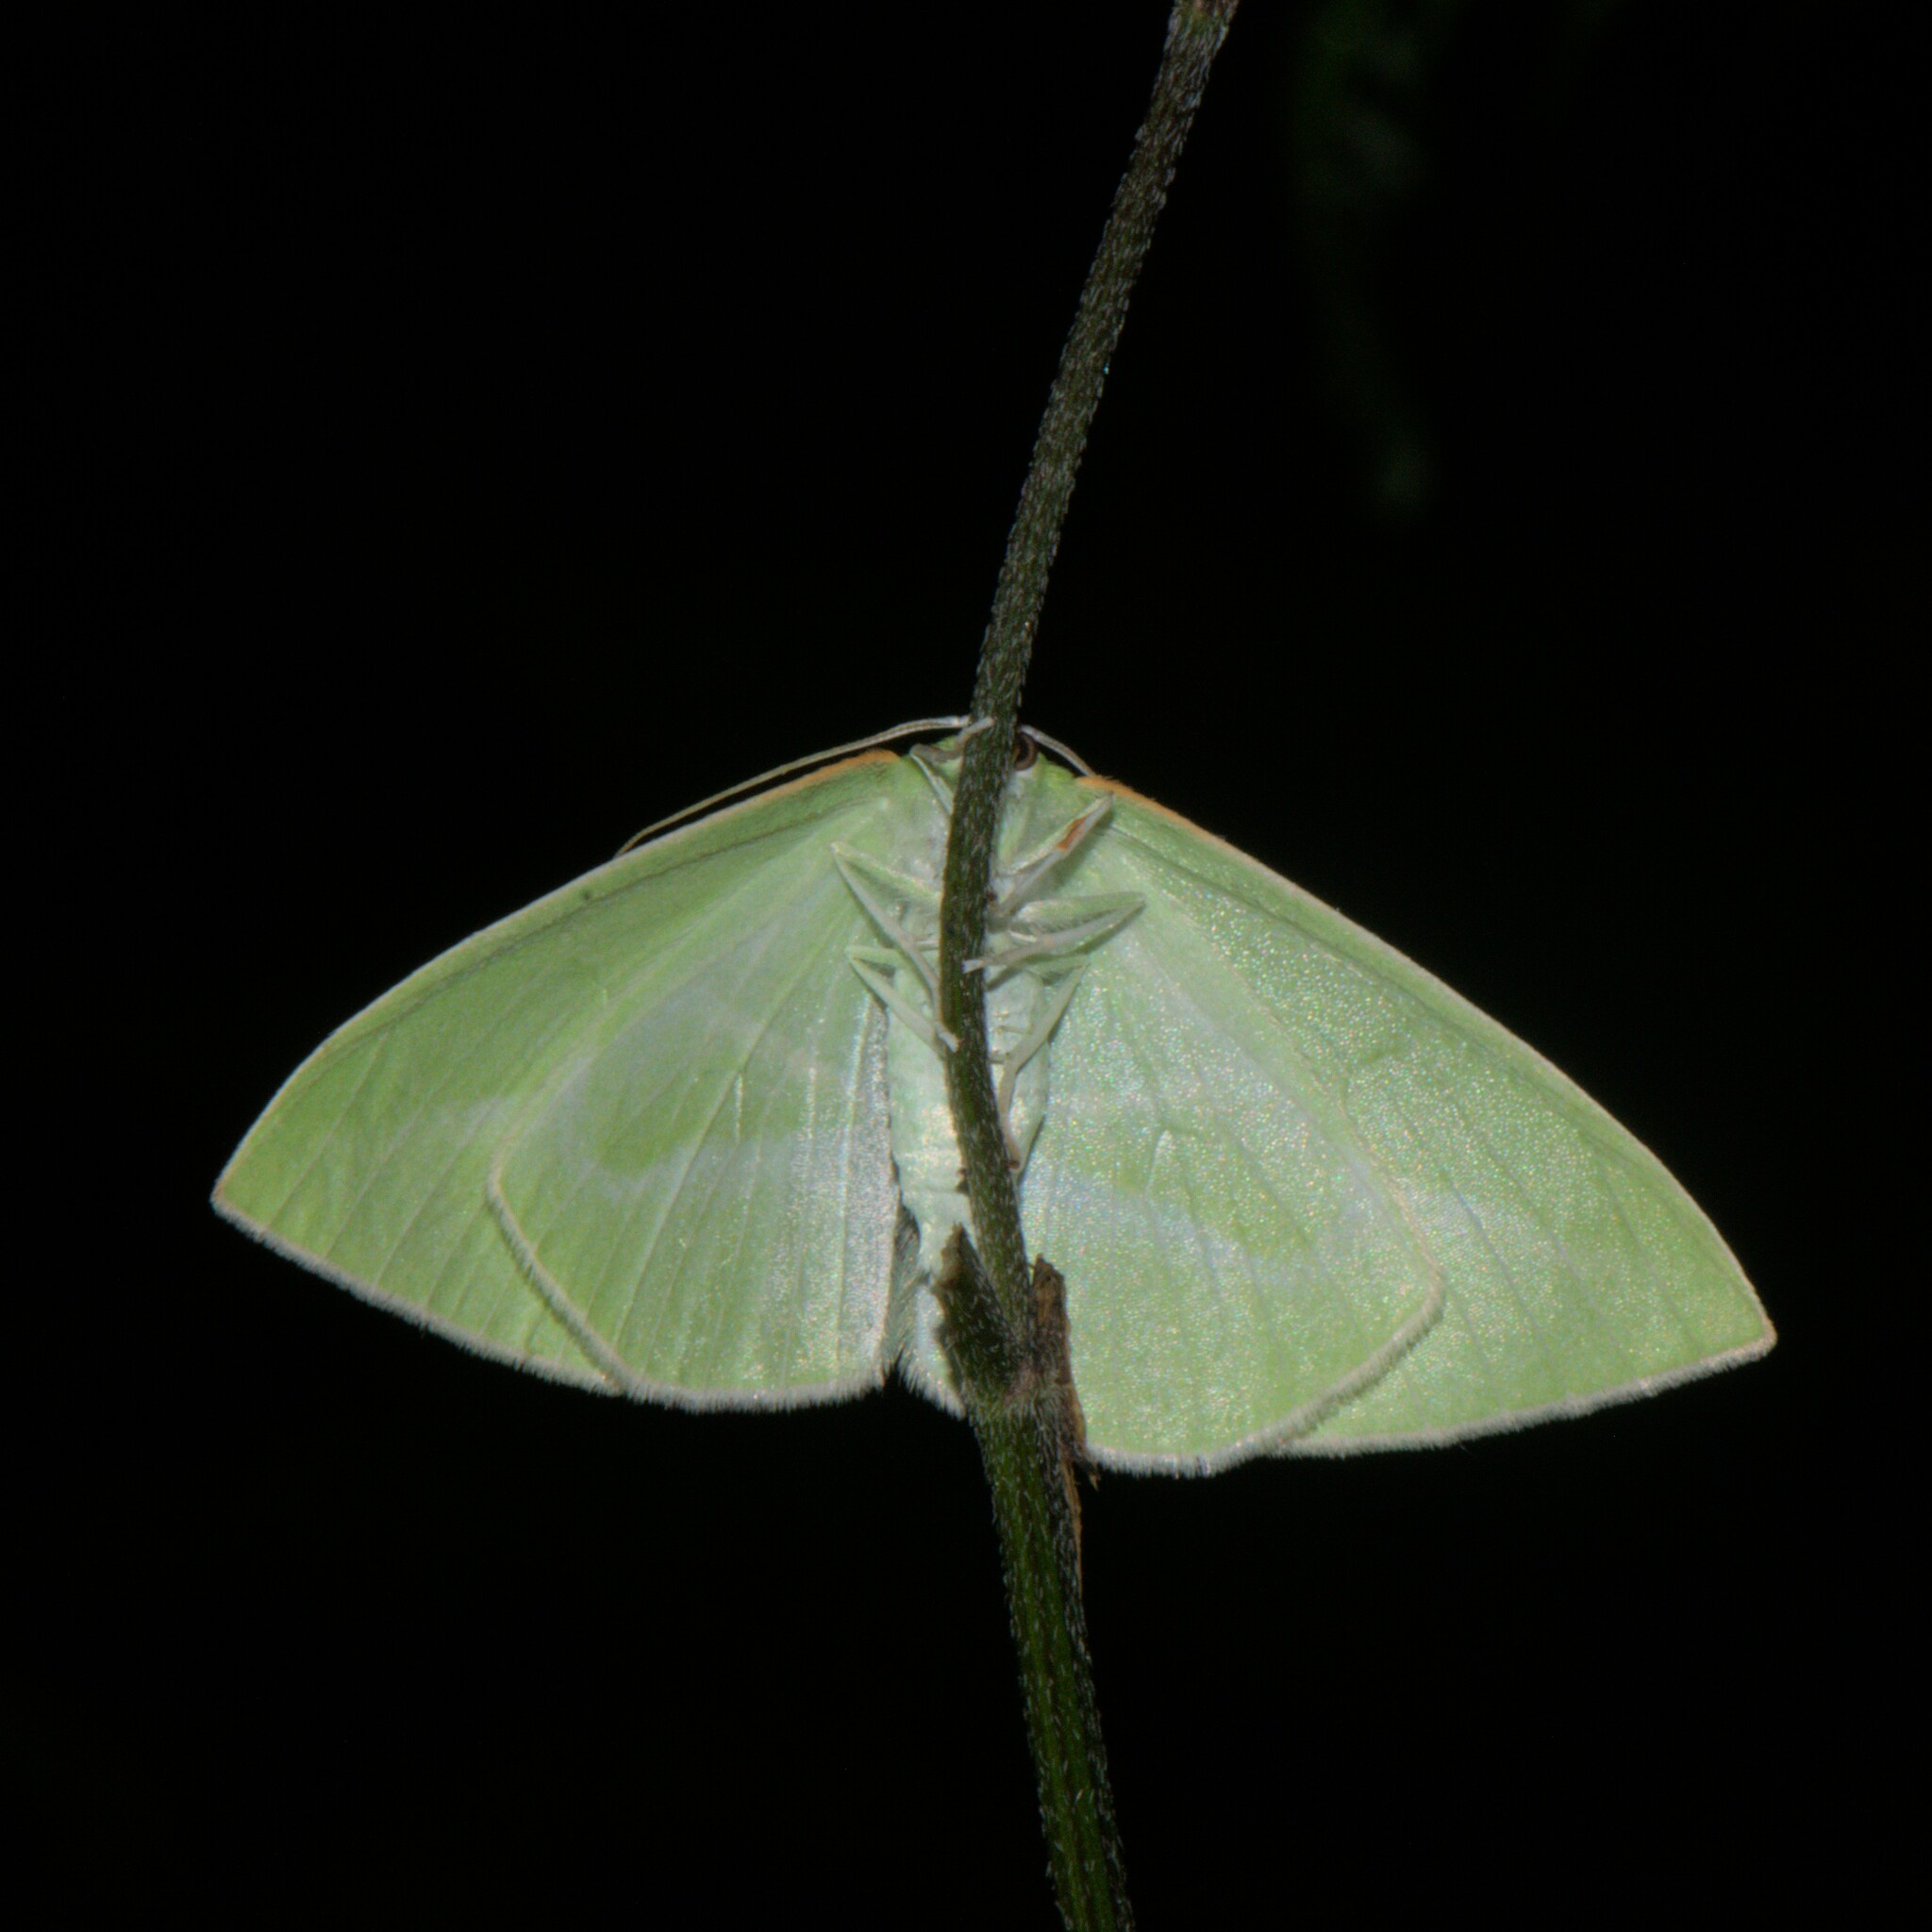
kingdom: Animalia
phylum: Arthropoda
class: Insecta
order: Lepidoptera
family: Geometridae
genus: Tanaoctenia
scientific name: Tanaoctenia haliaria
